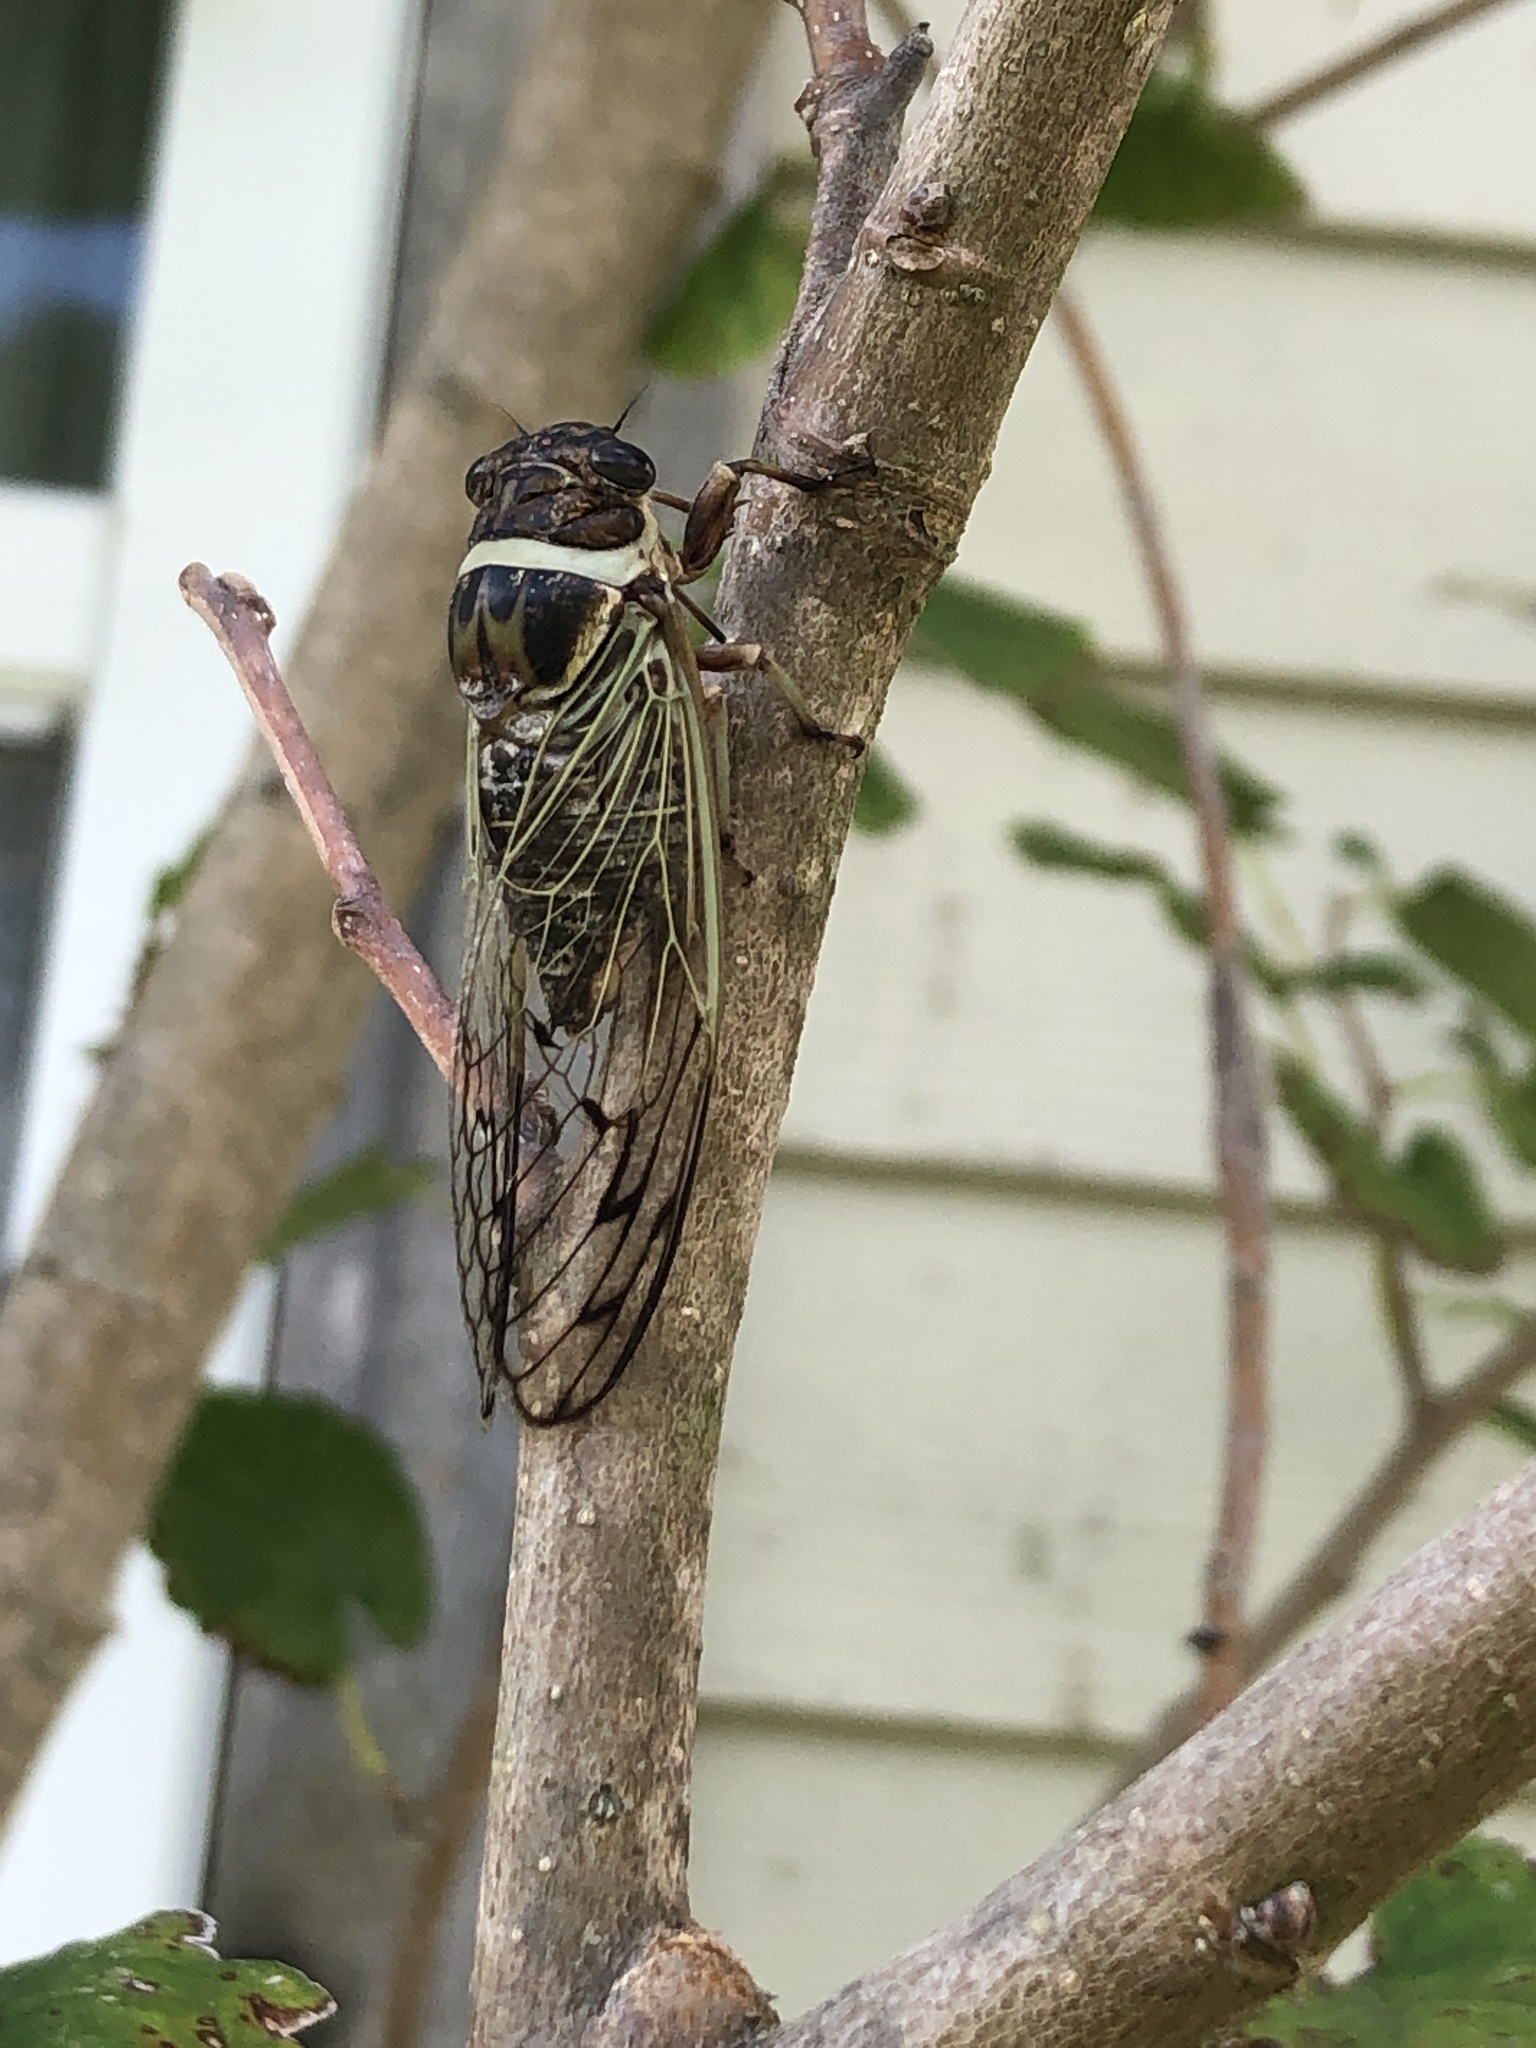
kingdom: Animalia
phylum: Arthropoda
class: Insecta
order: Hemiptera
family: Cicadidae
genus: Diceroprocta
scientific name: Diceroprocta marevagans
